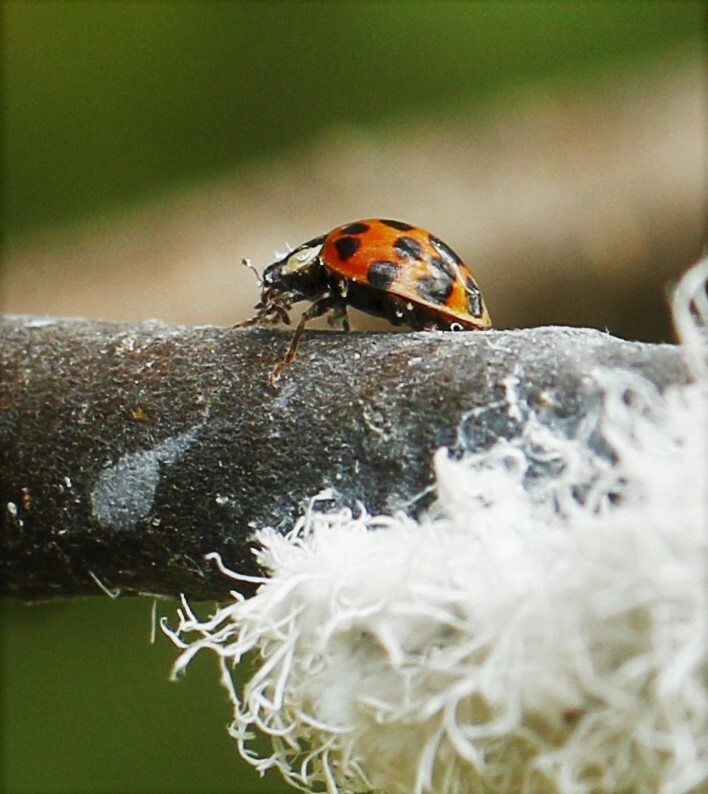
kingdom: Animalia
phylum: Arthropoda
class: Insecta
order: Coleoptera
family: Coccinellidae
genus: Harmonia
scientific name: Harmonia axyridis
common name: Harlequin ladybird
